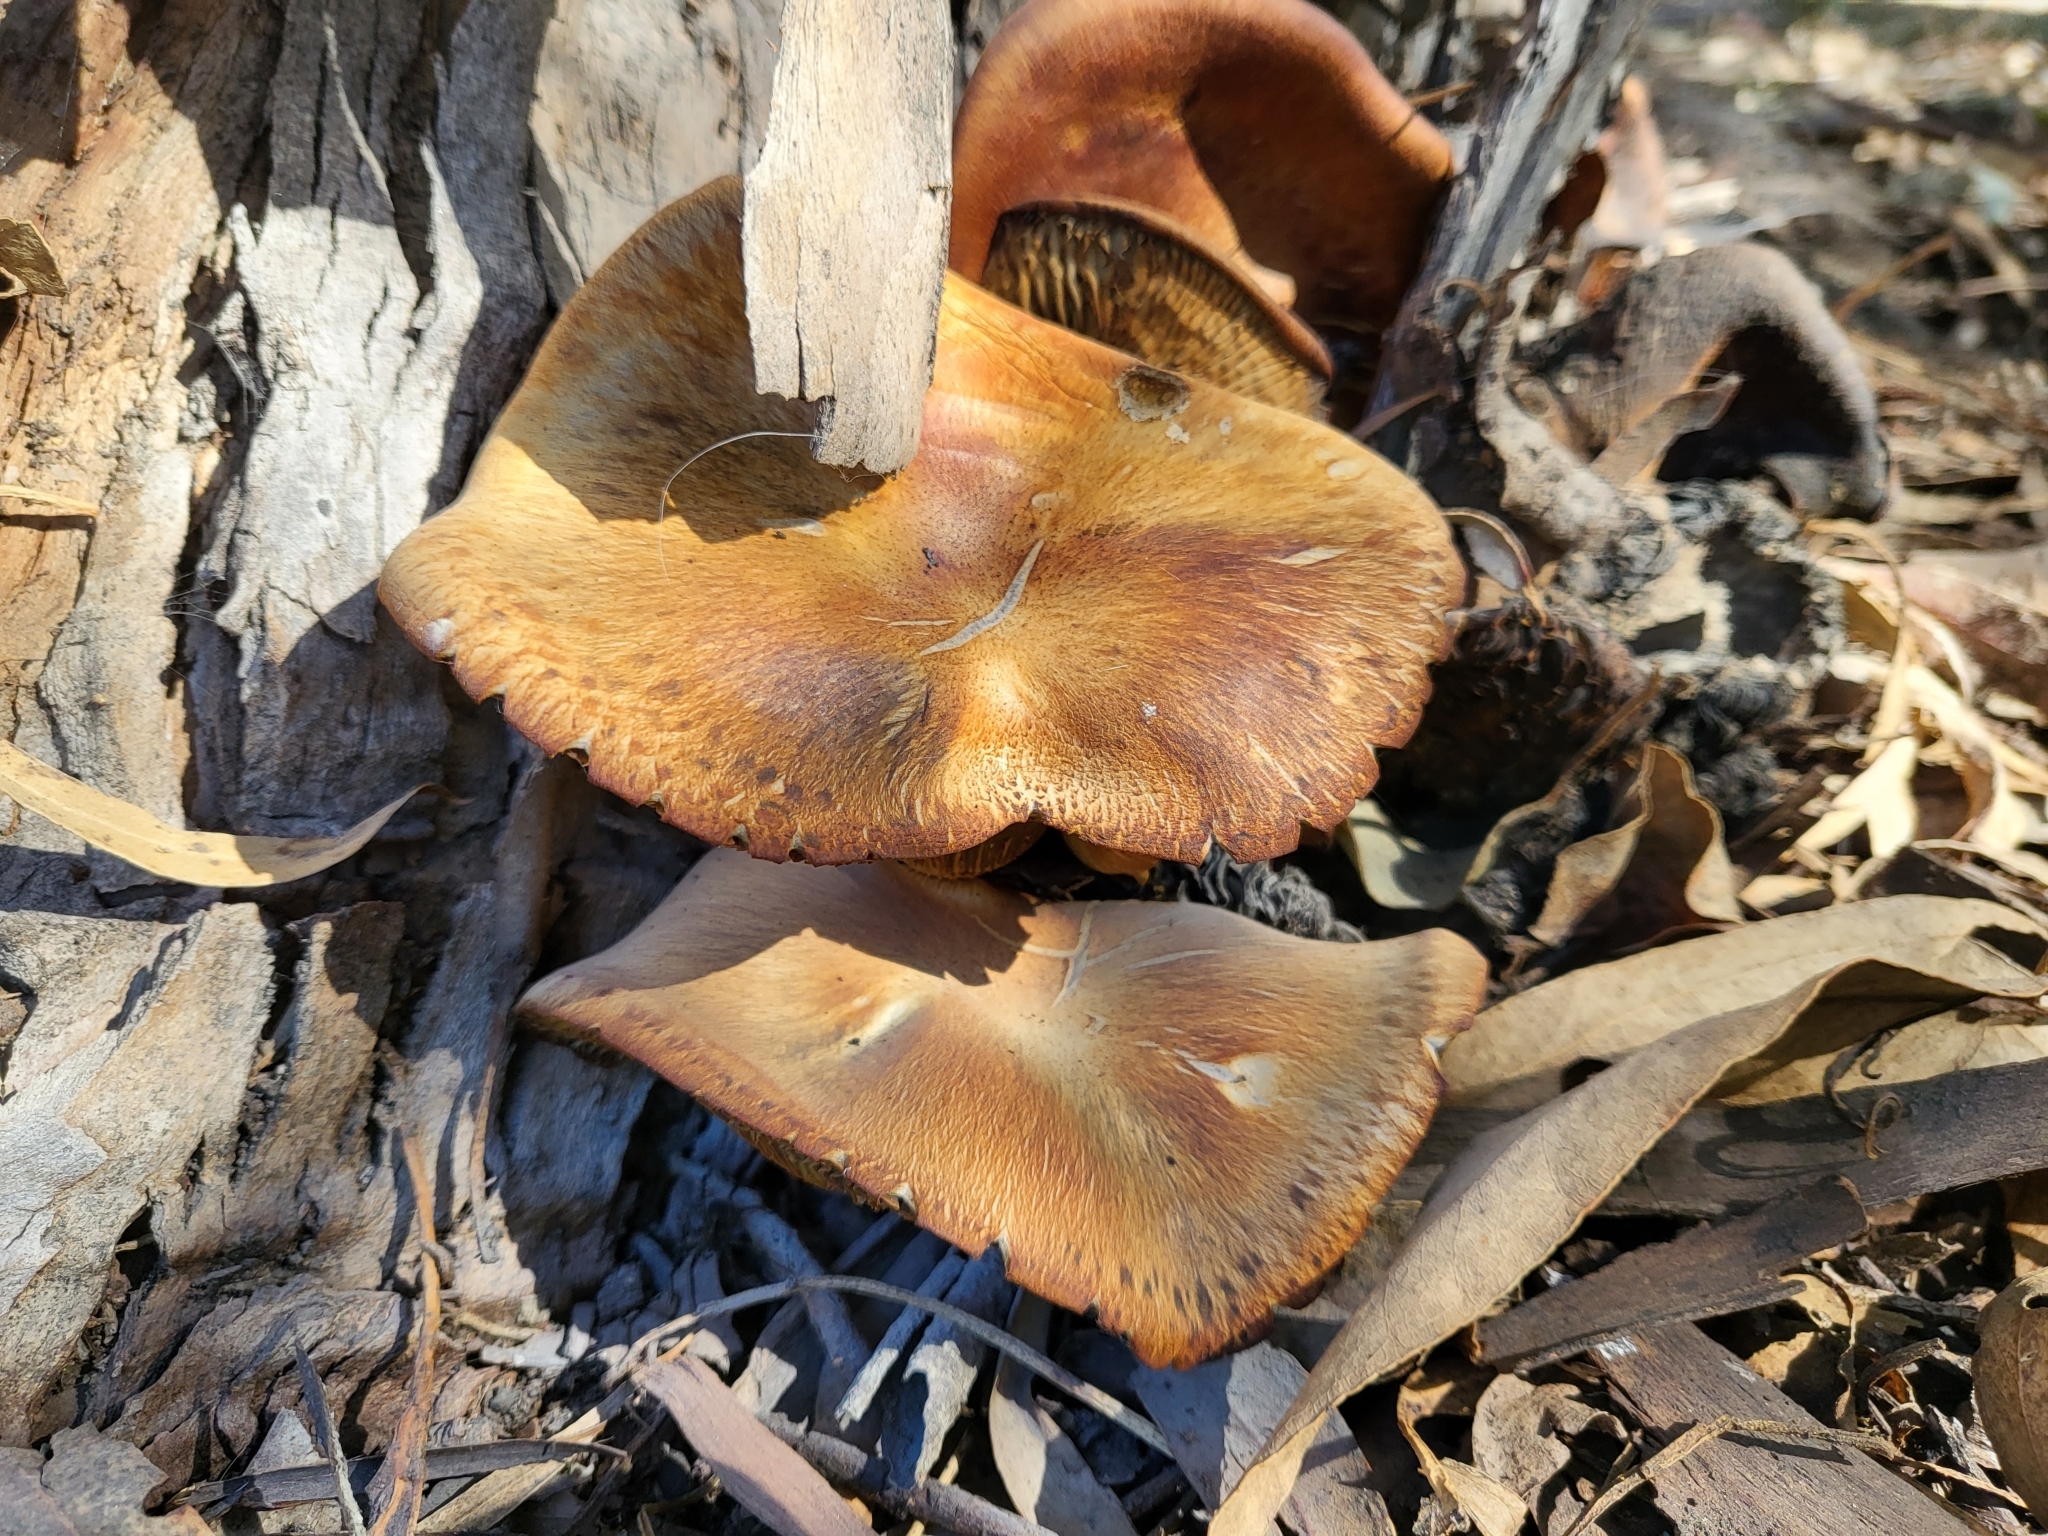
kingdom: Fungi
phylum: Basidiomycota
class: Agaricomycetes
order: Agaricales
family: Omphalotaceae
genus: Omphalotus
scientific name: Omphalotus olivascens
